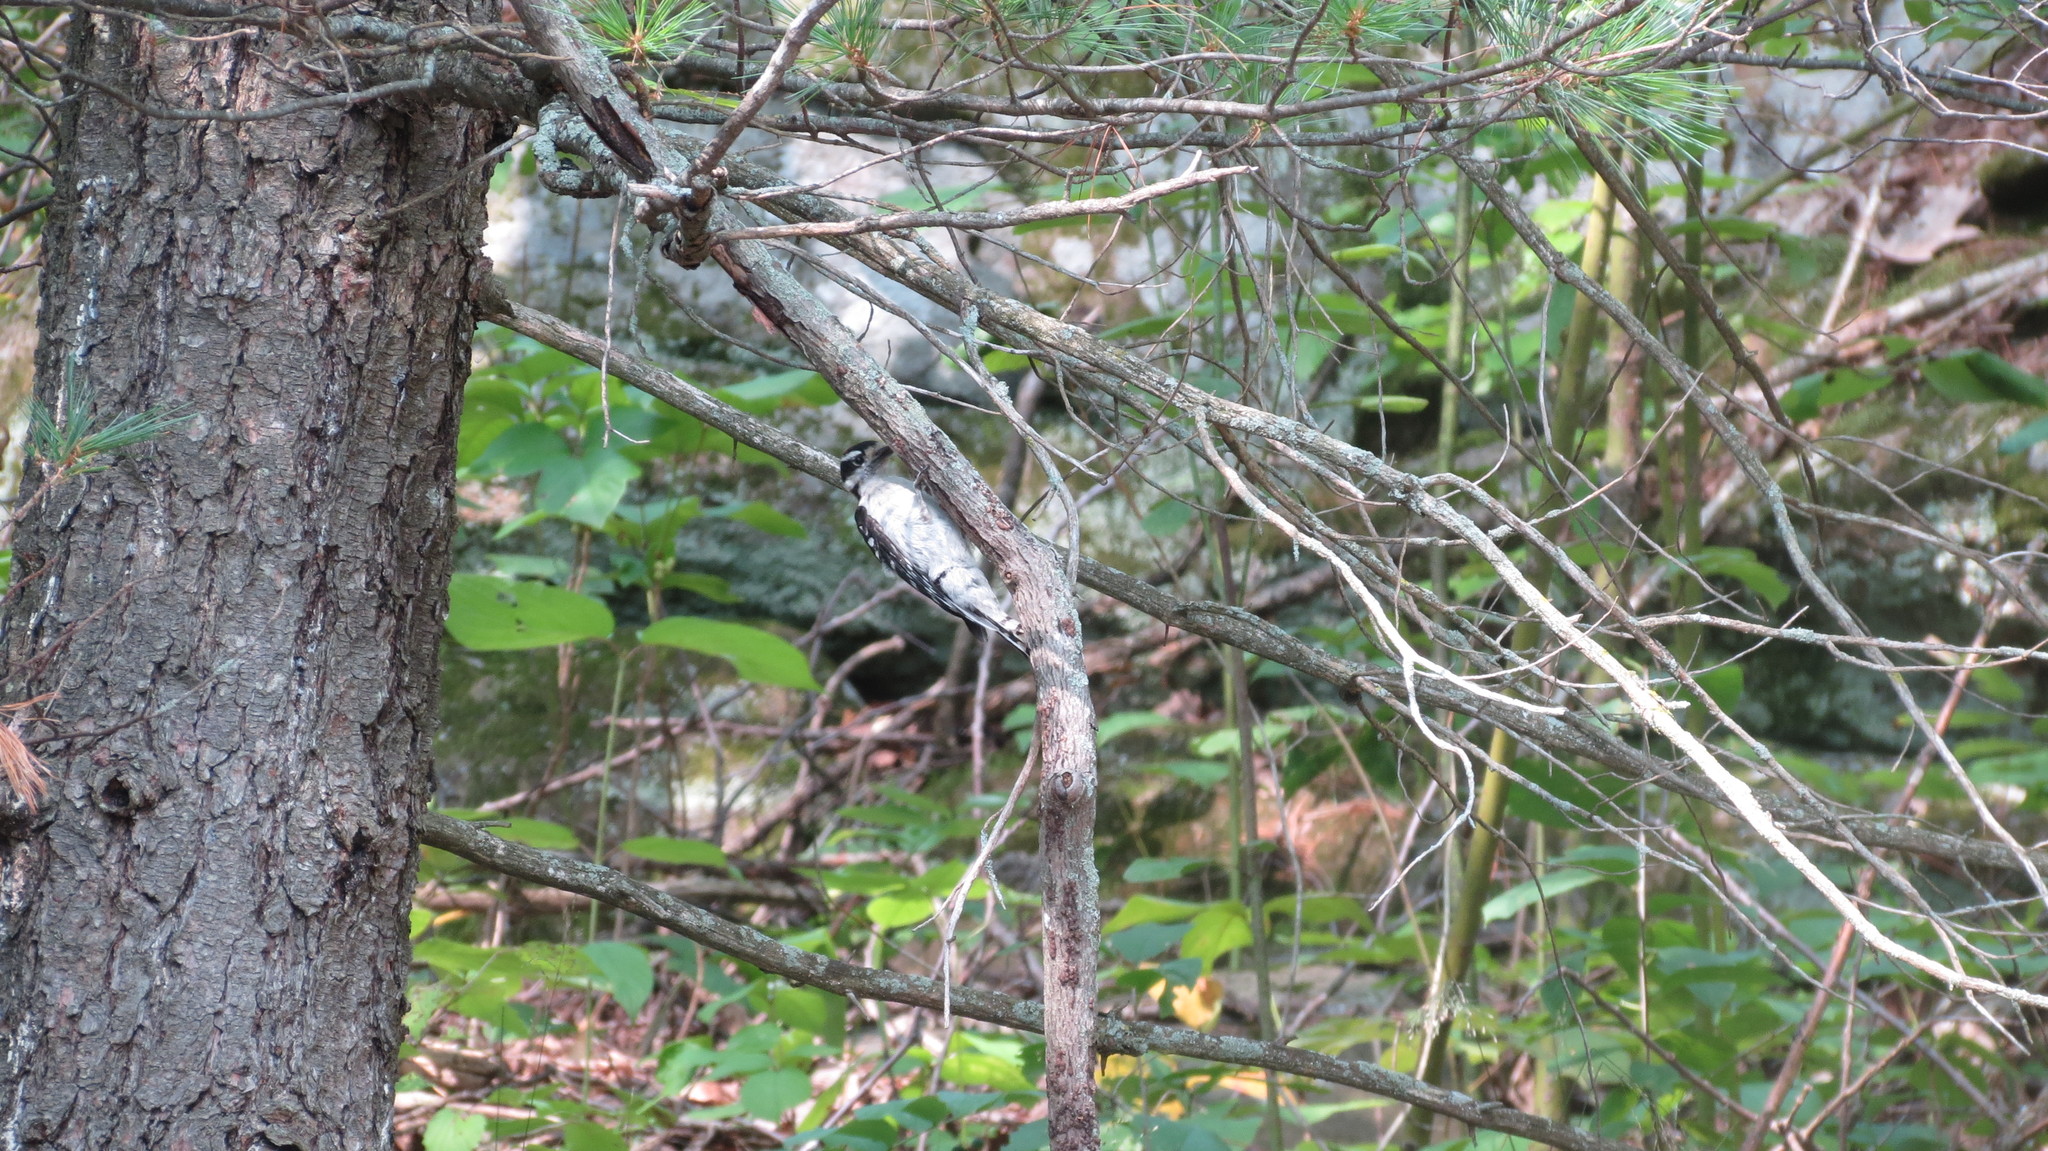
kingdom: Animalia
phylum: Chordata
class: Aves
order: Piciformes
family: Picidae
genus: Leuconotopicus
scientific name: Leuconotopicus villosus
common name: Hairy woodpecker
